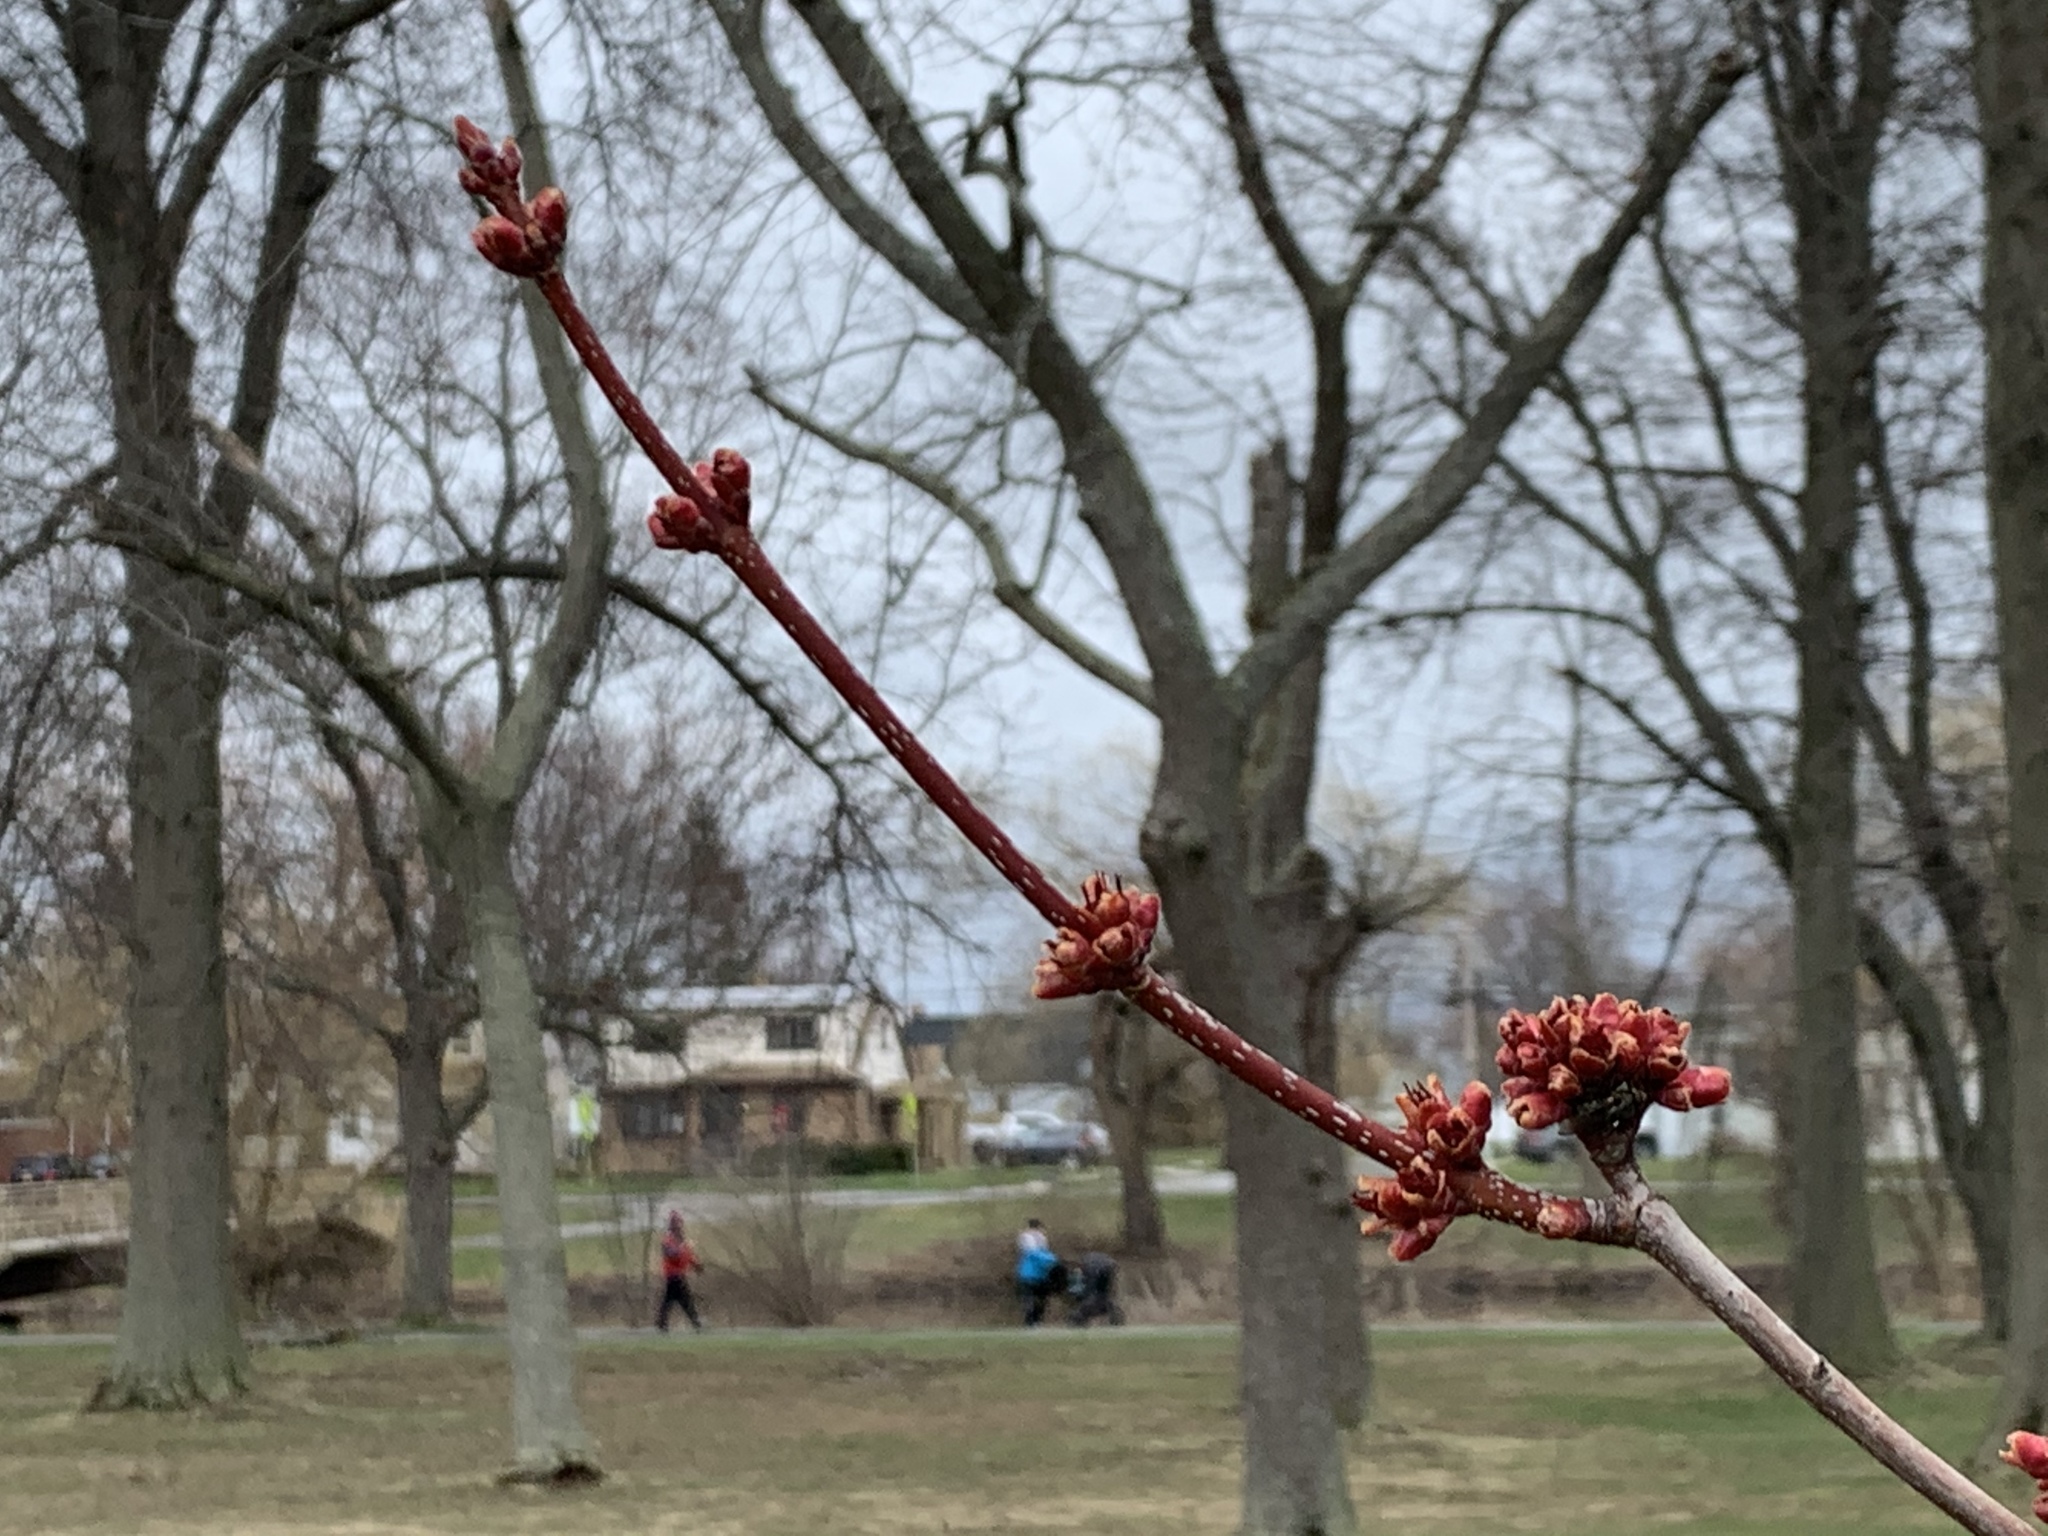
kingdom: Plantae
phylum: Tracheophyta
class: Magnoliopsida
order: Sapindales
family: Sapindaceae
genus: Acer
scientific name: Acer rubrum
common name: Red maple
